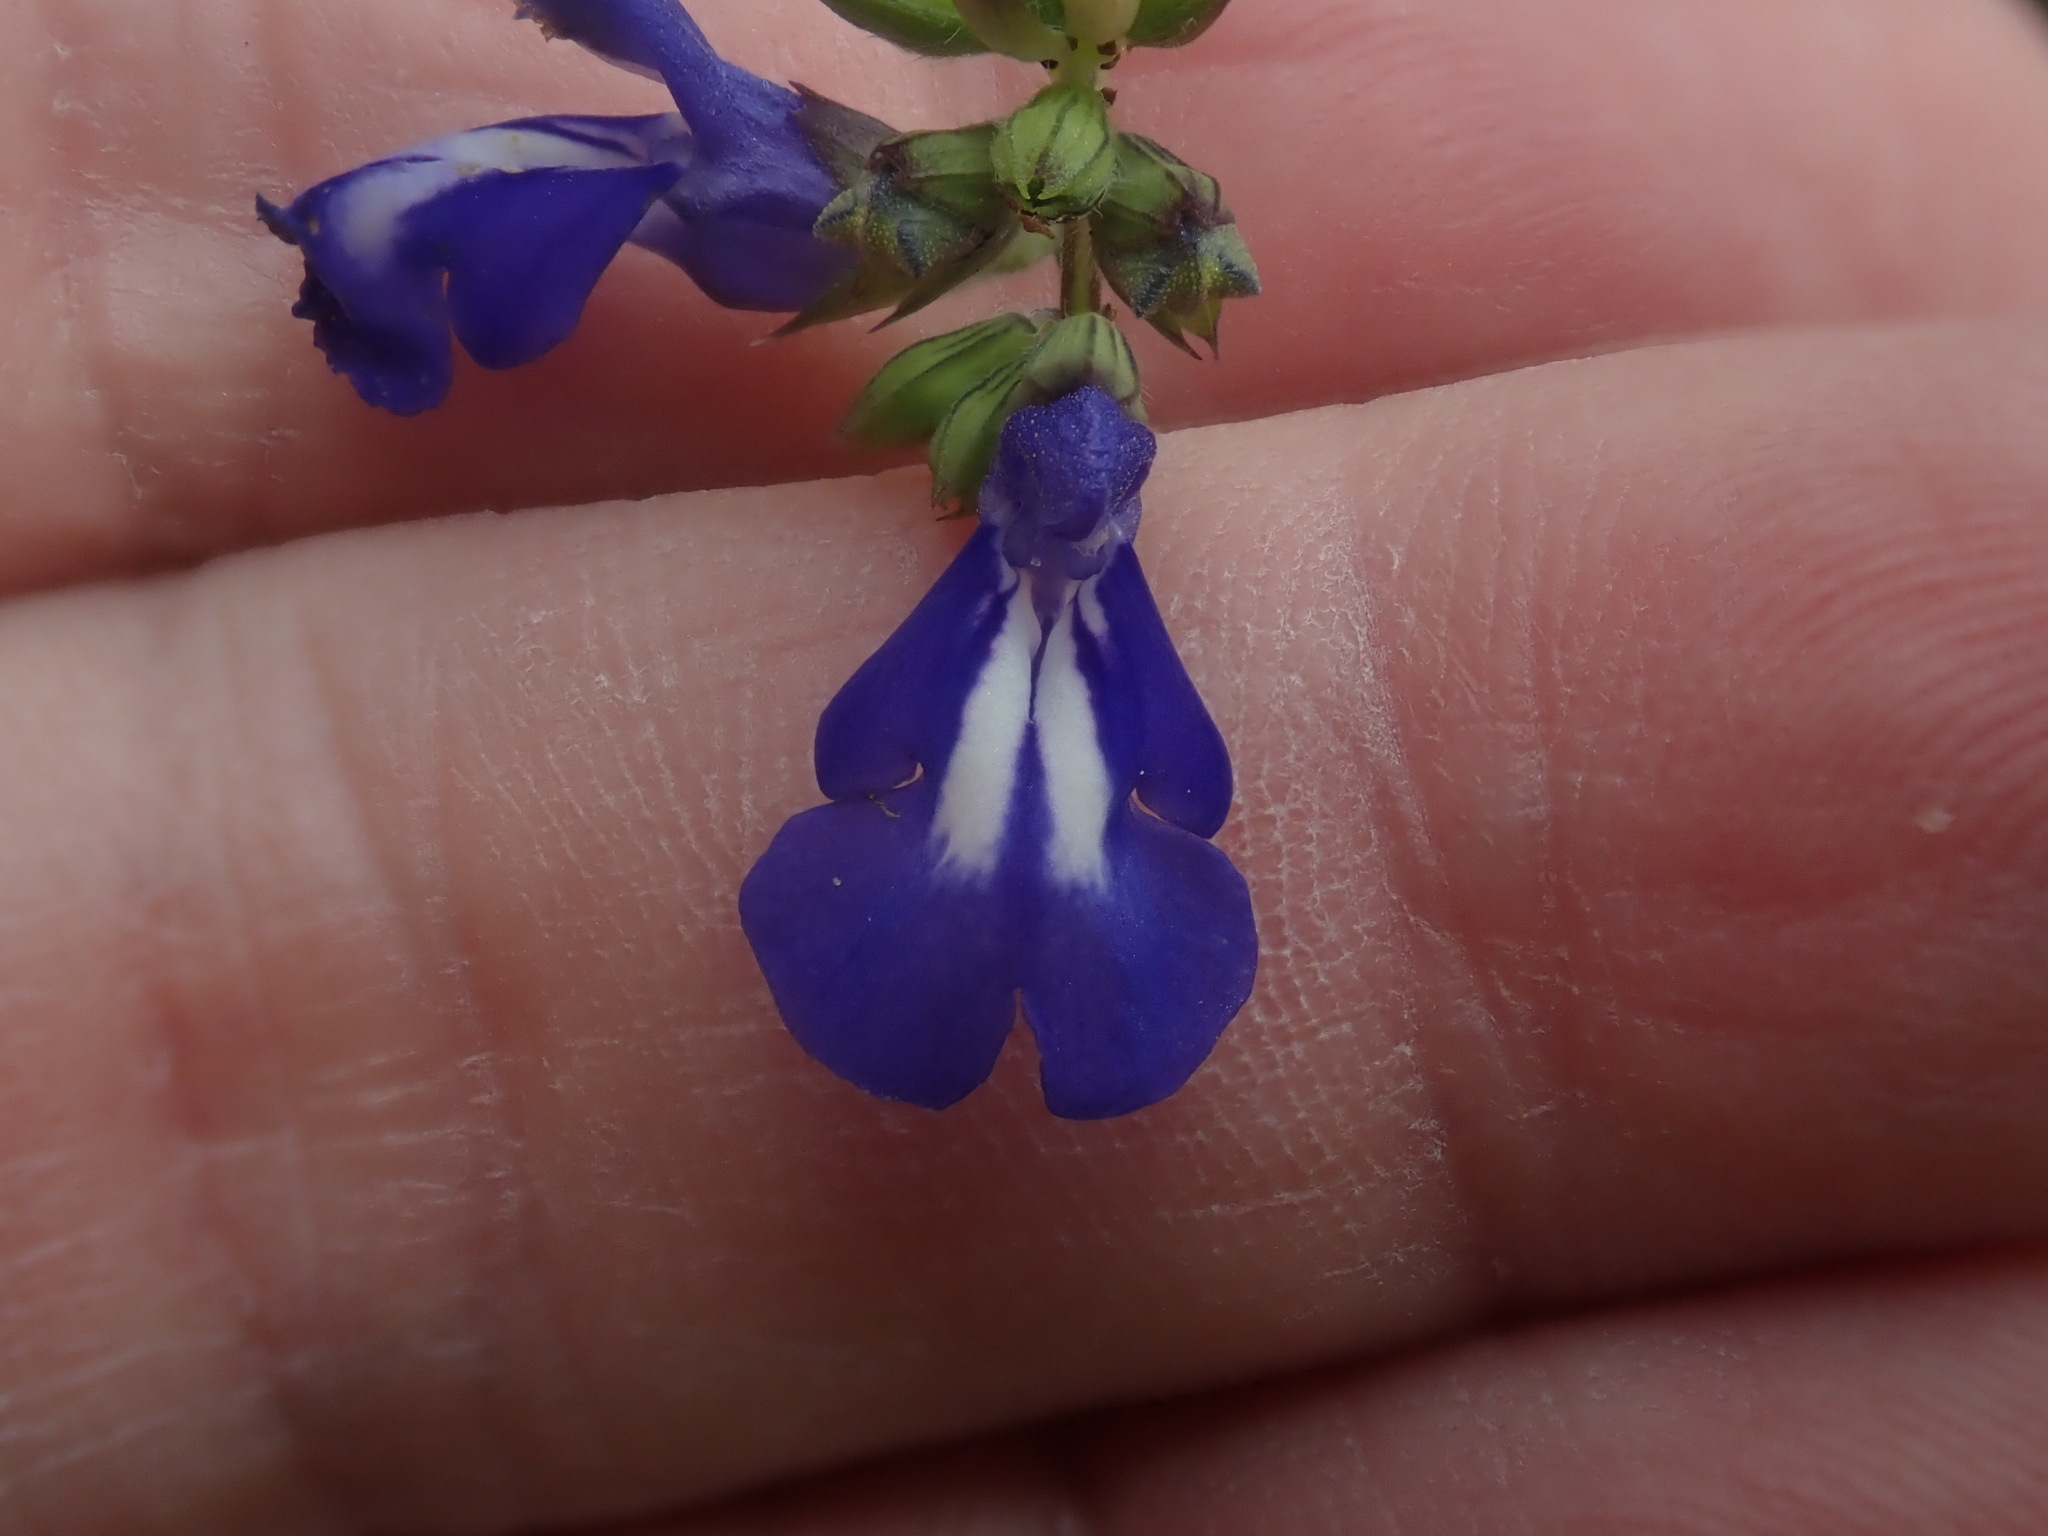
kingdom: Plantae
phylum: Tracheophyta
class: Magnoliopsida
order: Lamiales
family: Lamiaceae
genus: Salvia
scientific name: Salvia laevis
